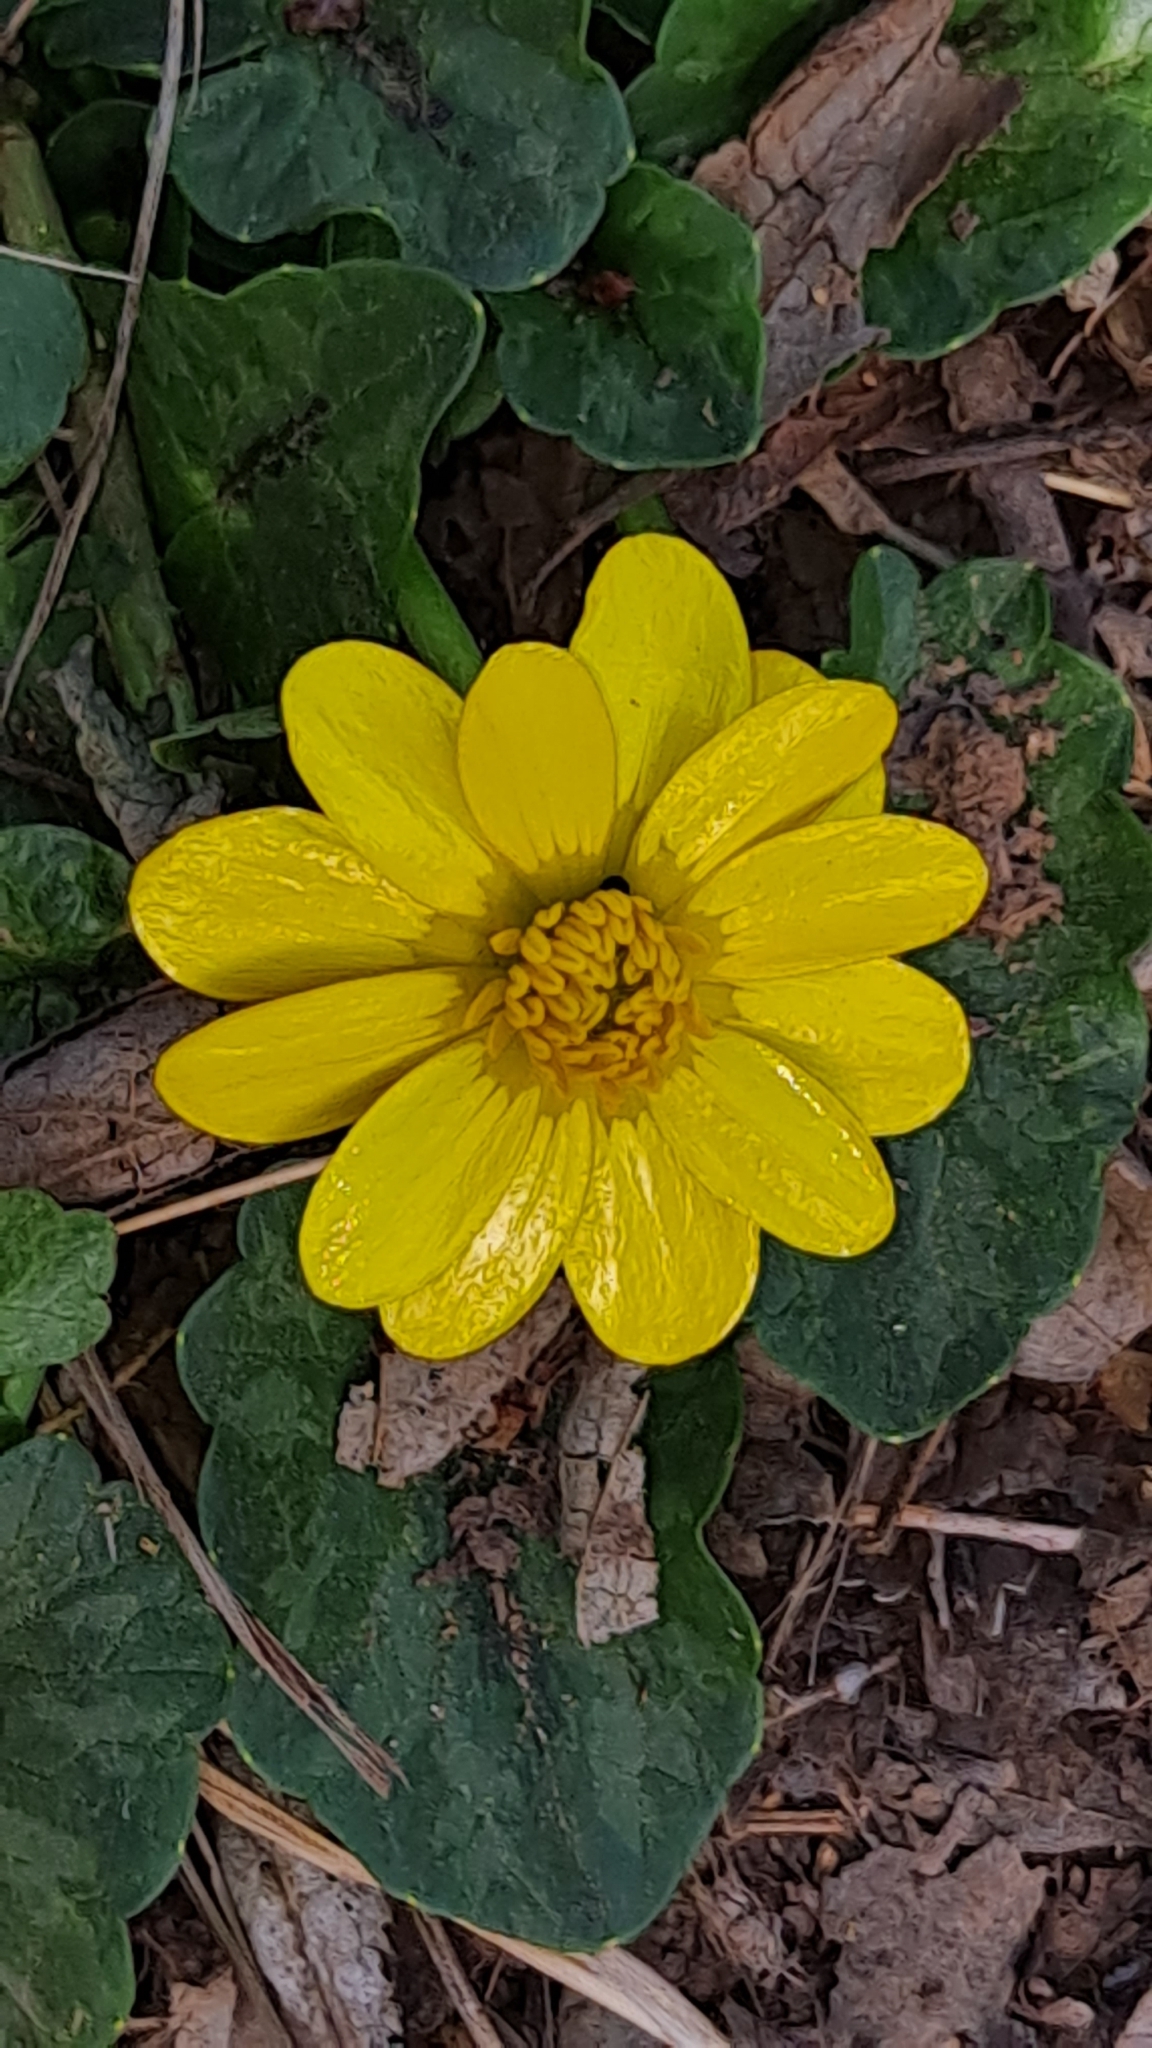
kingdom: Plantae
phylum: Tracheophyta
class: Magnoliopsida
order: Ranunculales
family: Ranunculaceae
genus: Ficaria
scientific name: Ficaria verna
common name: Lesser celandine
